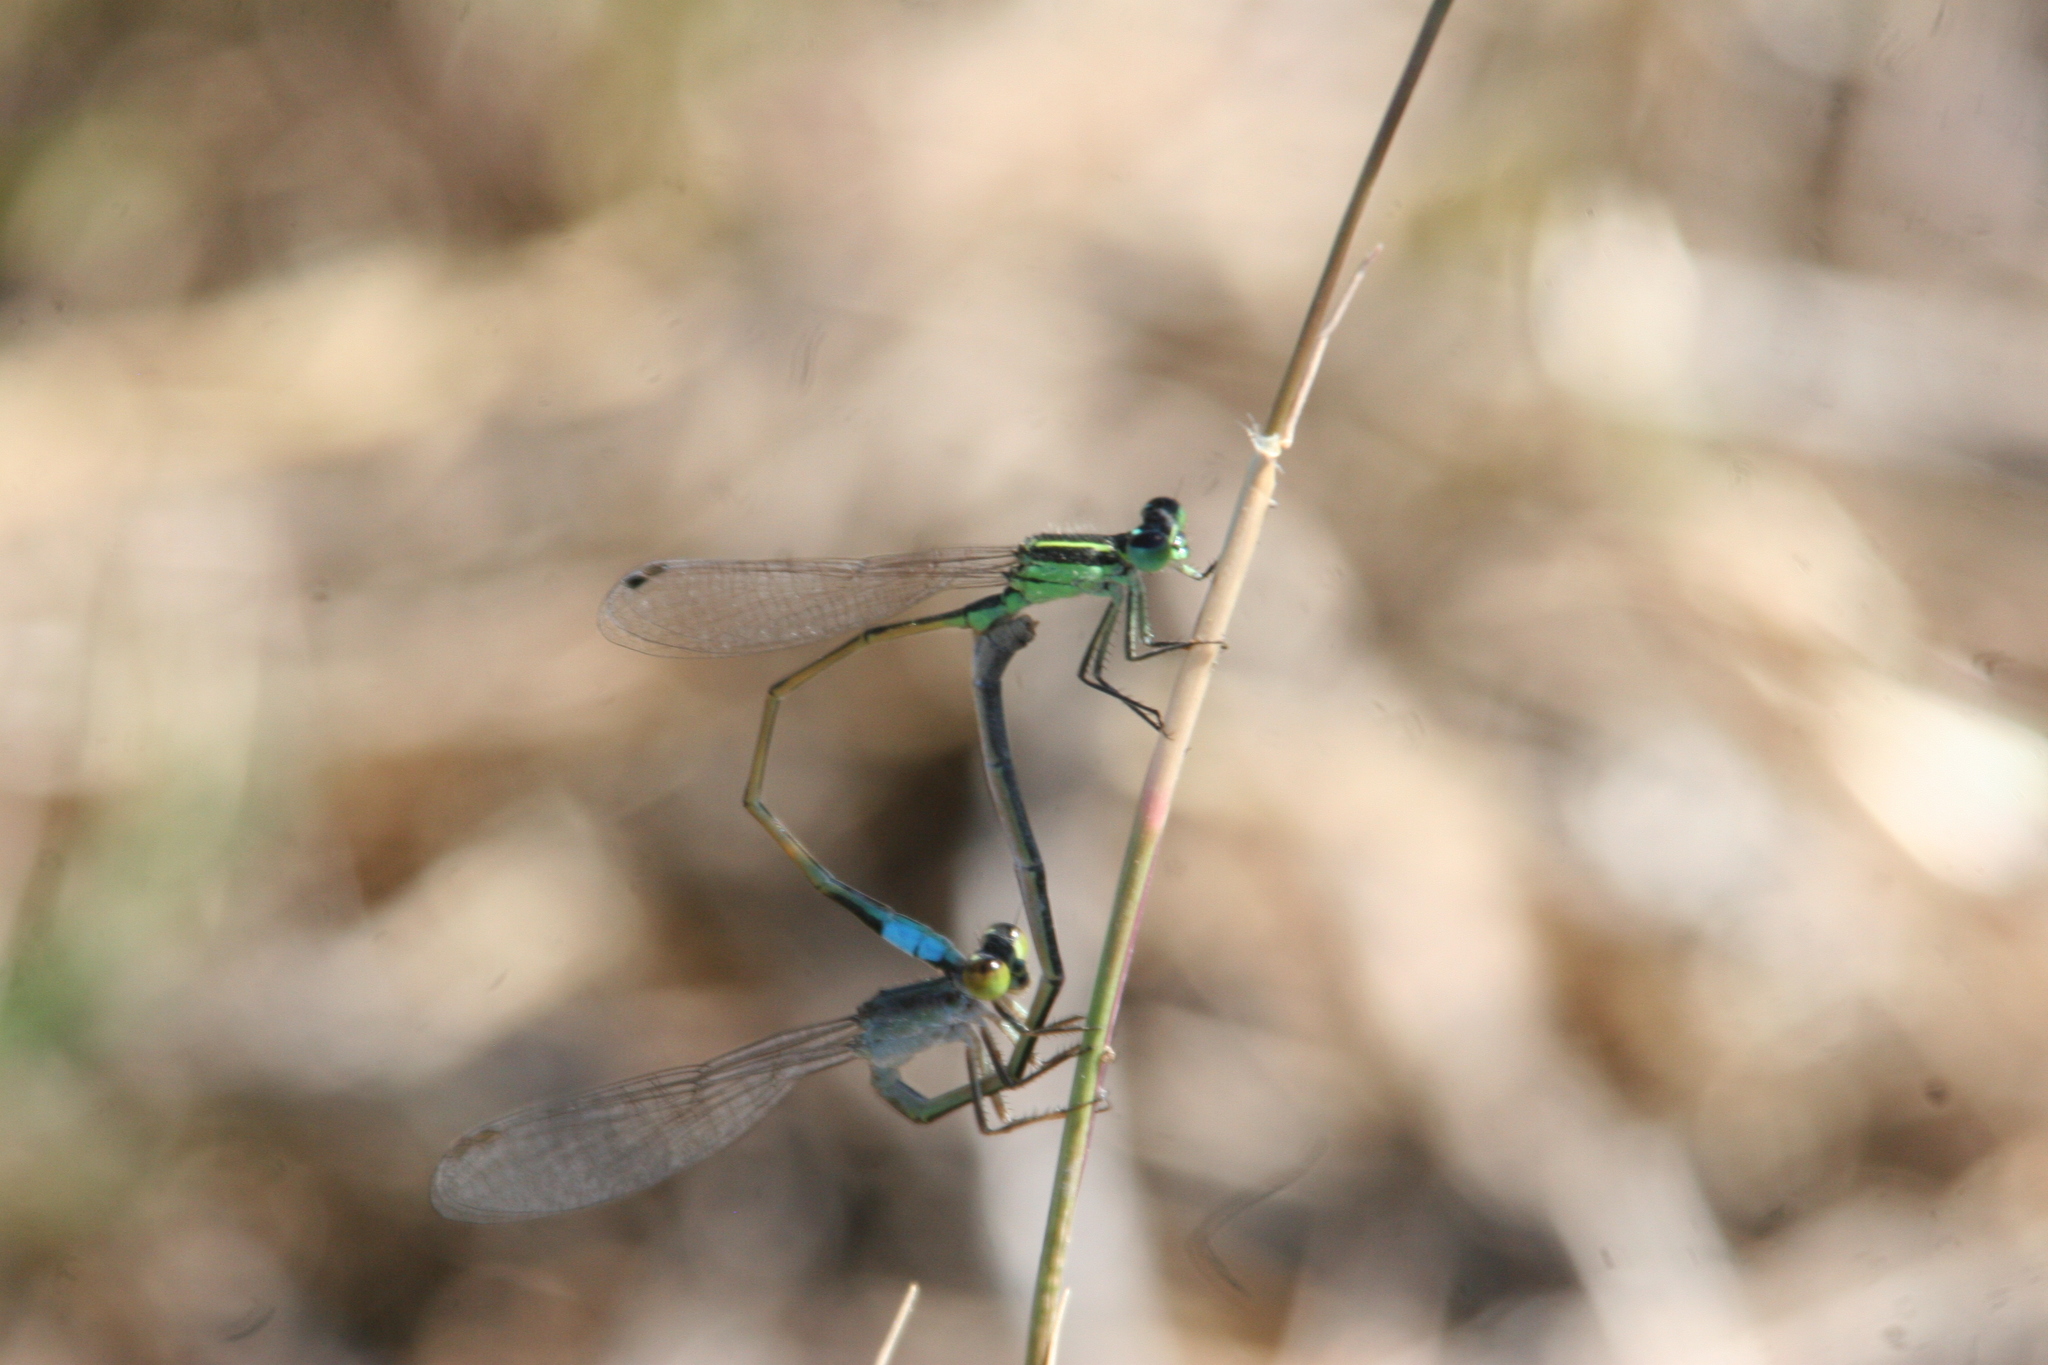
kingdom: Animalia
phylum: Arthropoda
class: Insecta
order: Odonata
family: Coenagrionidae
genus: Ischnura
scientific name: Ischnura ramburii
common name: Rambur's forktail
